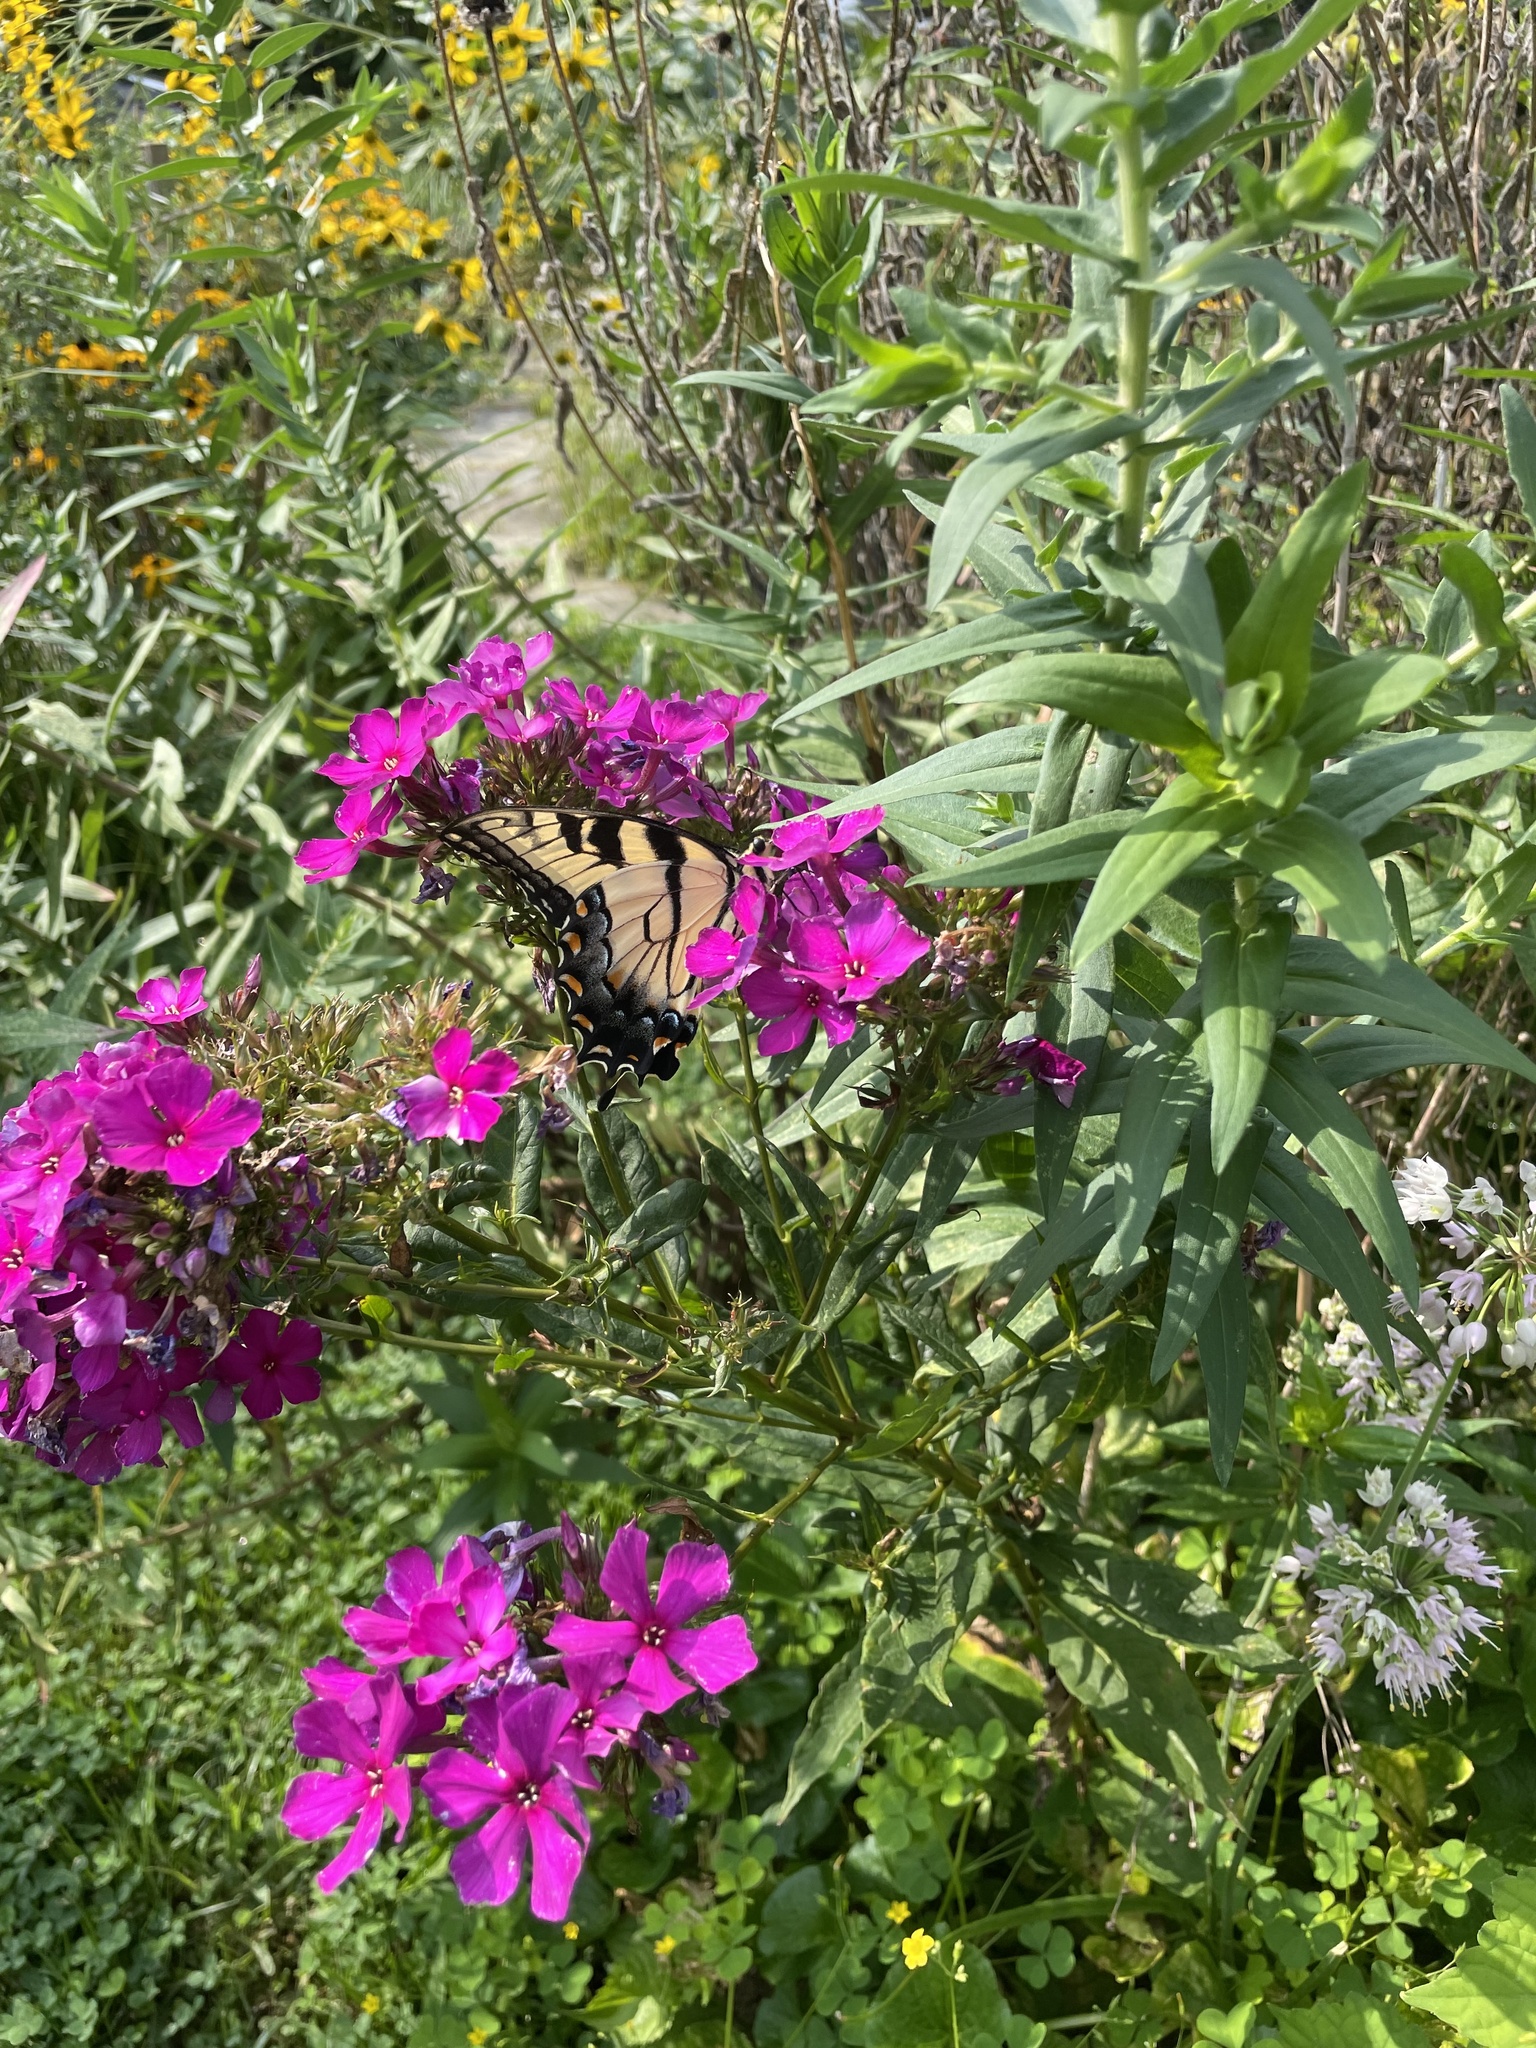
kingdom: Animalia
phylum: Arthropoda
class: Insecta
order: Lepidoptera
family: Papilionidae
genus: Papilio
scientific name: Papilio glaucus
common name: Tiger swallowtail
